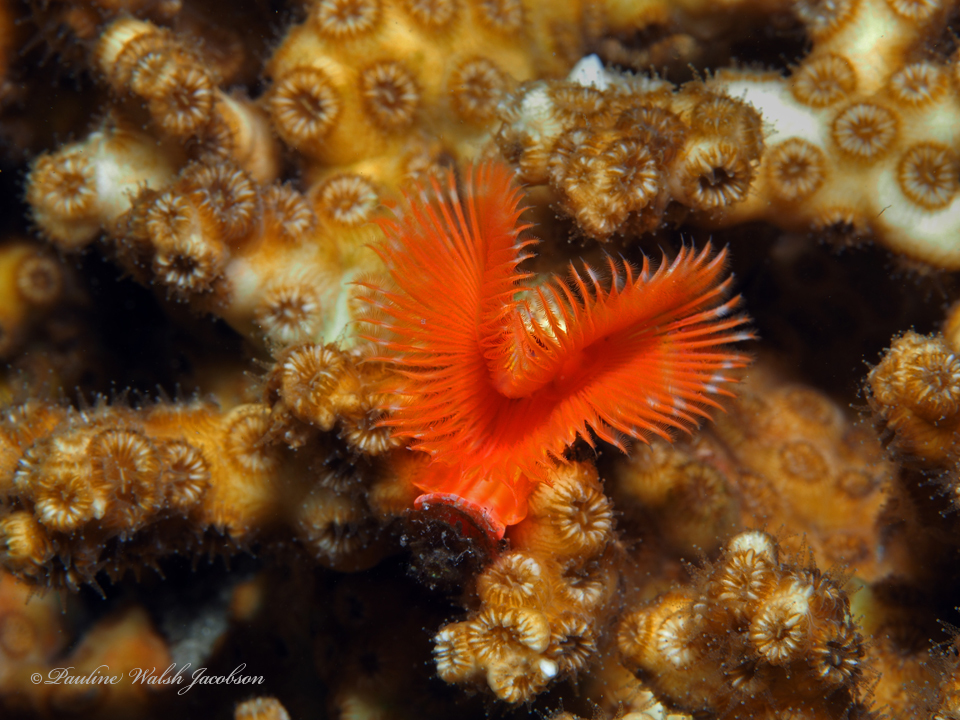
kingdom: Animalia
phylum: Annelida
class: Polychaeta
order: Sabellida
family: Serpulidae
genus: Pomatostegus
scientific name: Pomatostegus stellatus
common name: Star tubeworm
